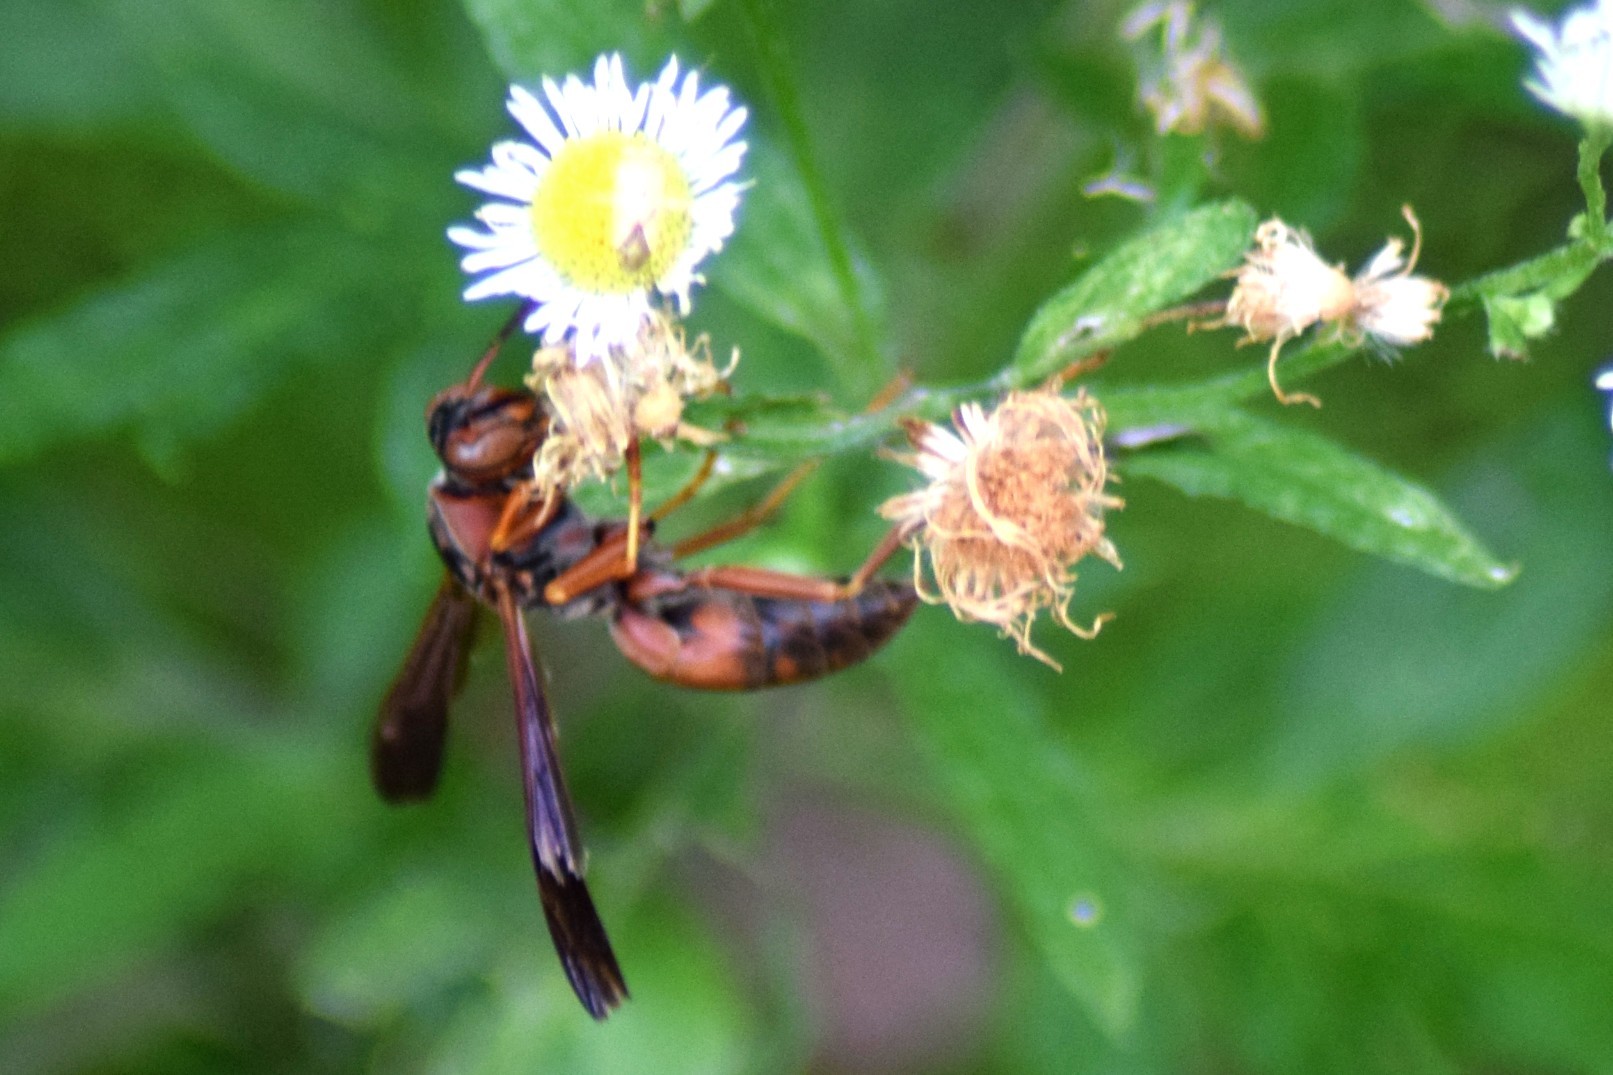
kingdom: Animalia
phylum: Arthropoda
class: Insecta
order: Hymenoptera
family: Vespidae
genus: Fuscopolistes
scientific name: Fuscopolistes
